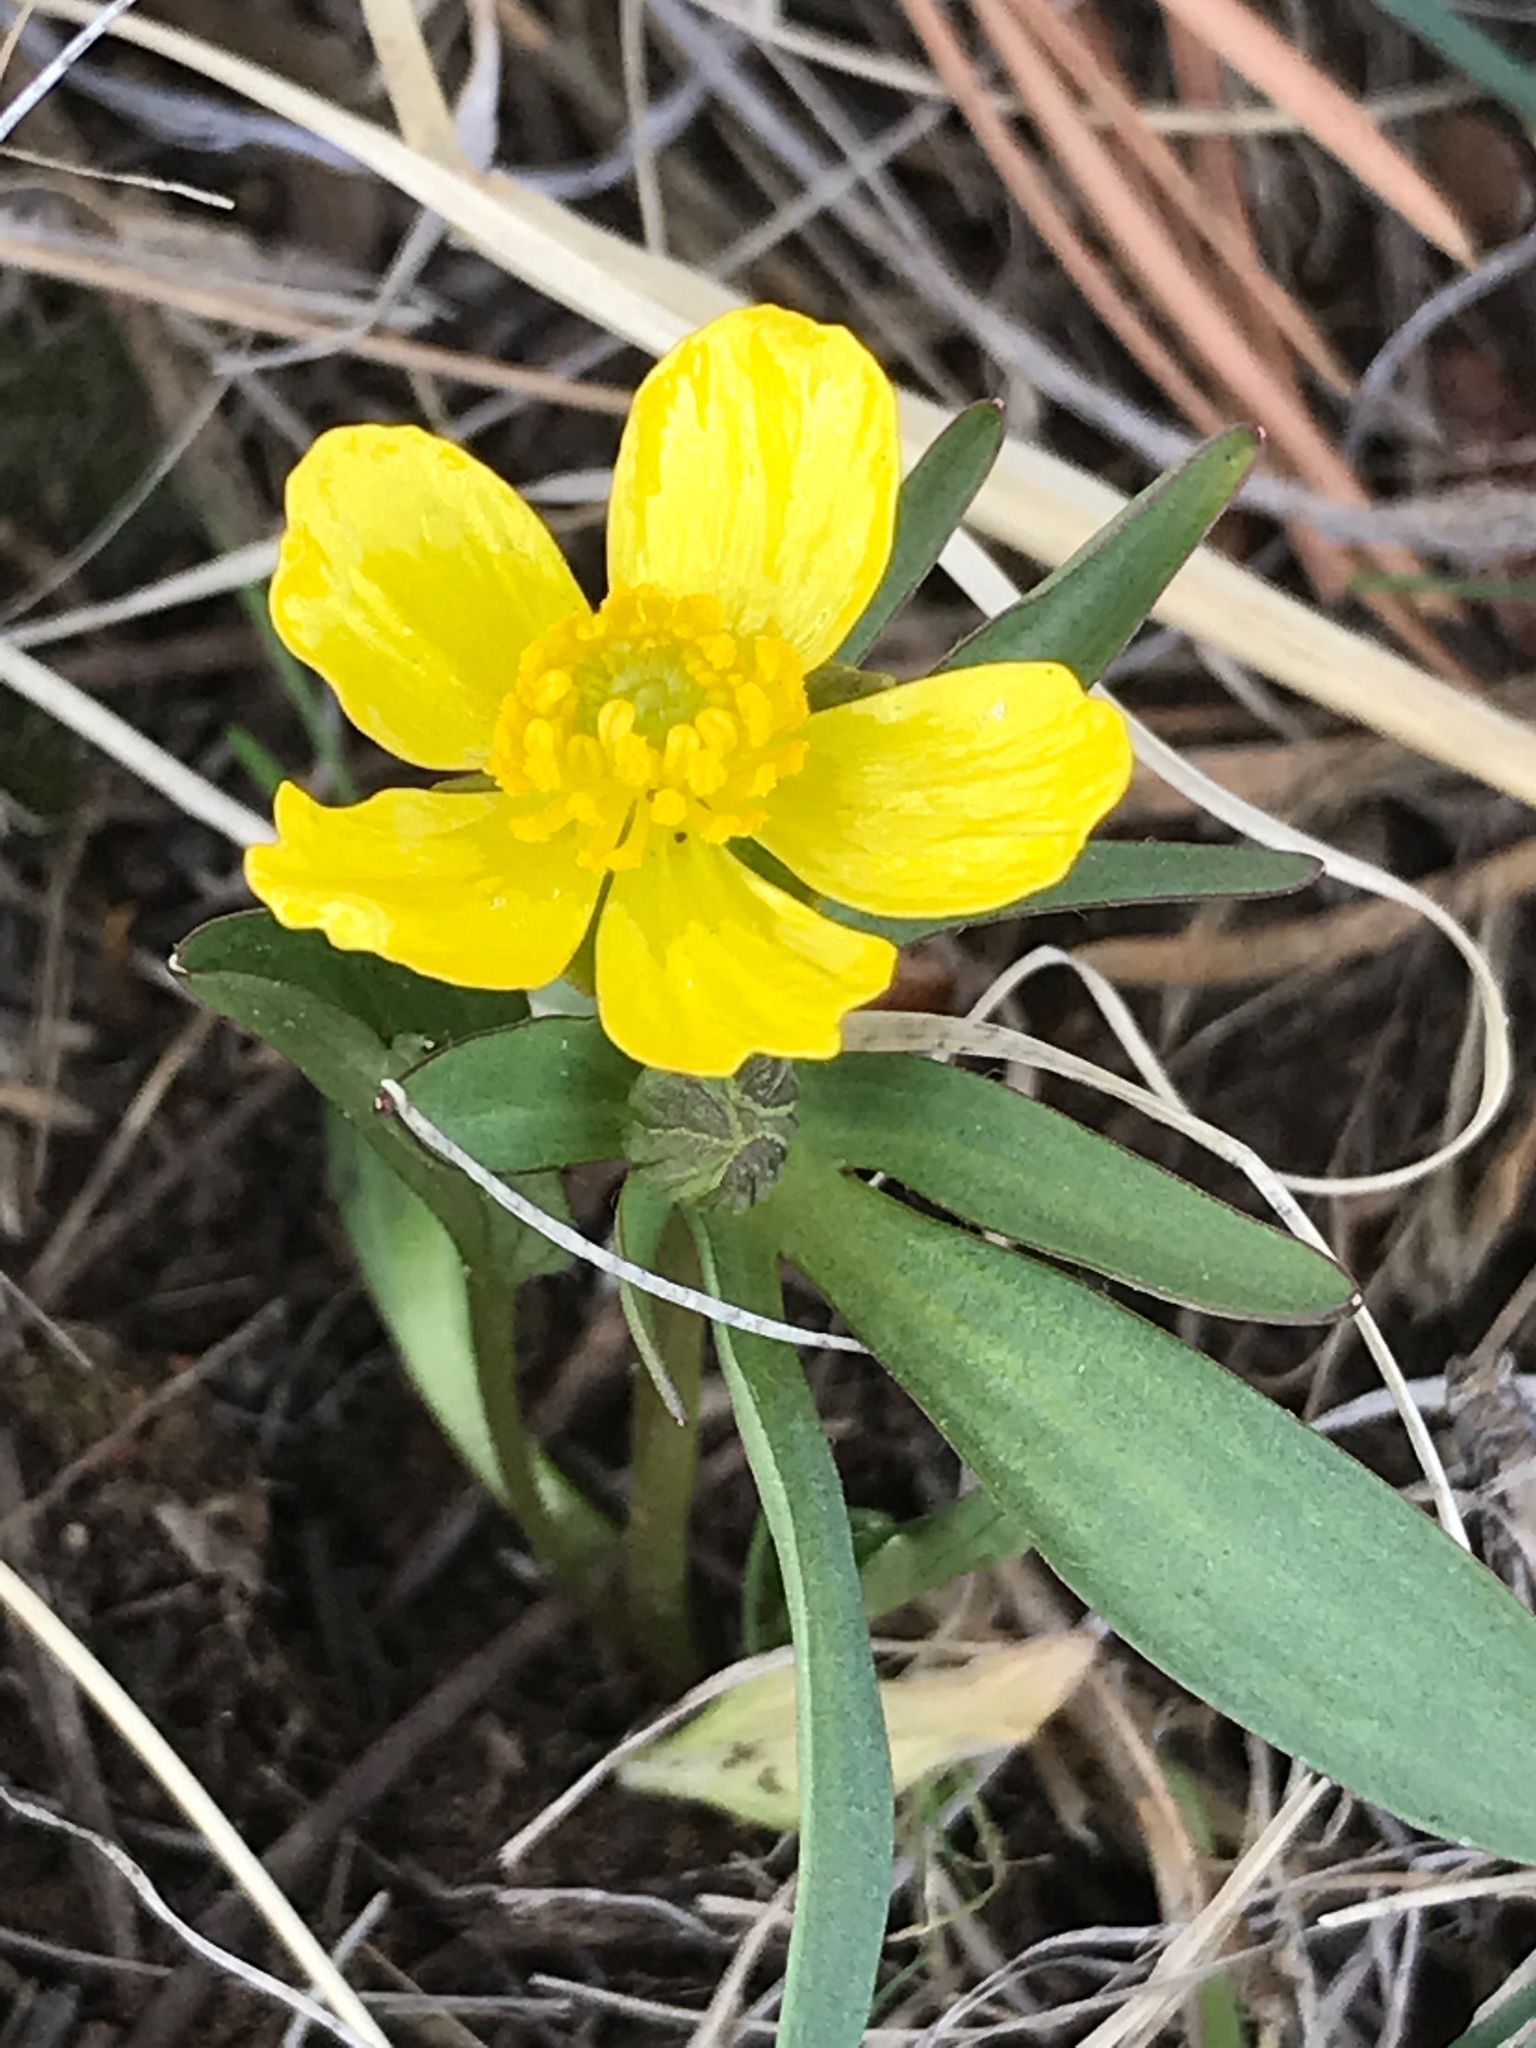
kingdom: Plantae
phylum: Tracheophyta
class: Magnoliopsida
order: Ranunculales
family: Ranunculaceae
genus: Ranunculus
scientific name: Ranunculus glaberrimus
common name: Sagebrush buttercup
